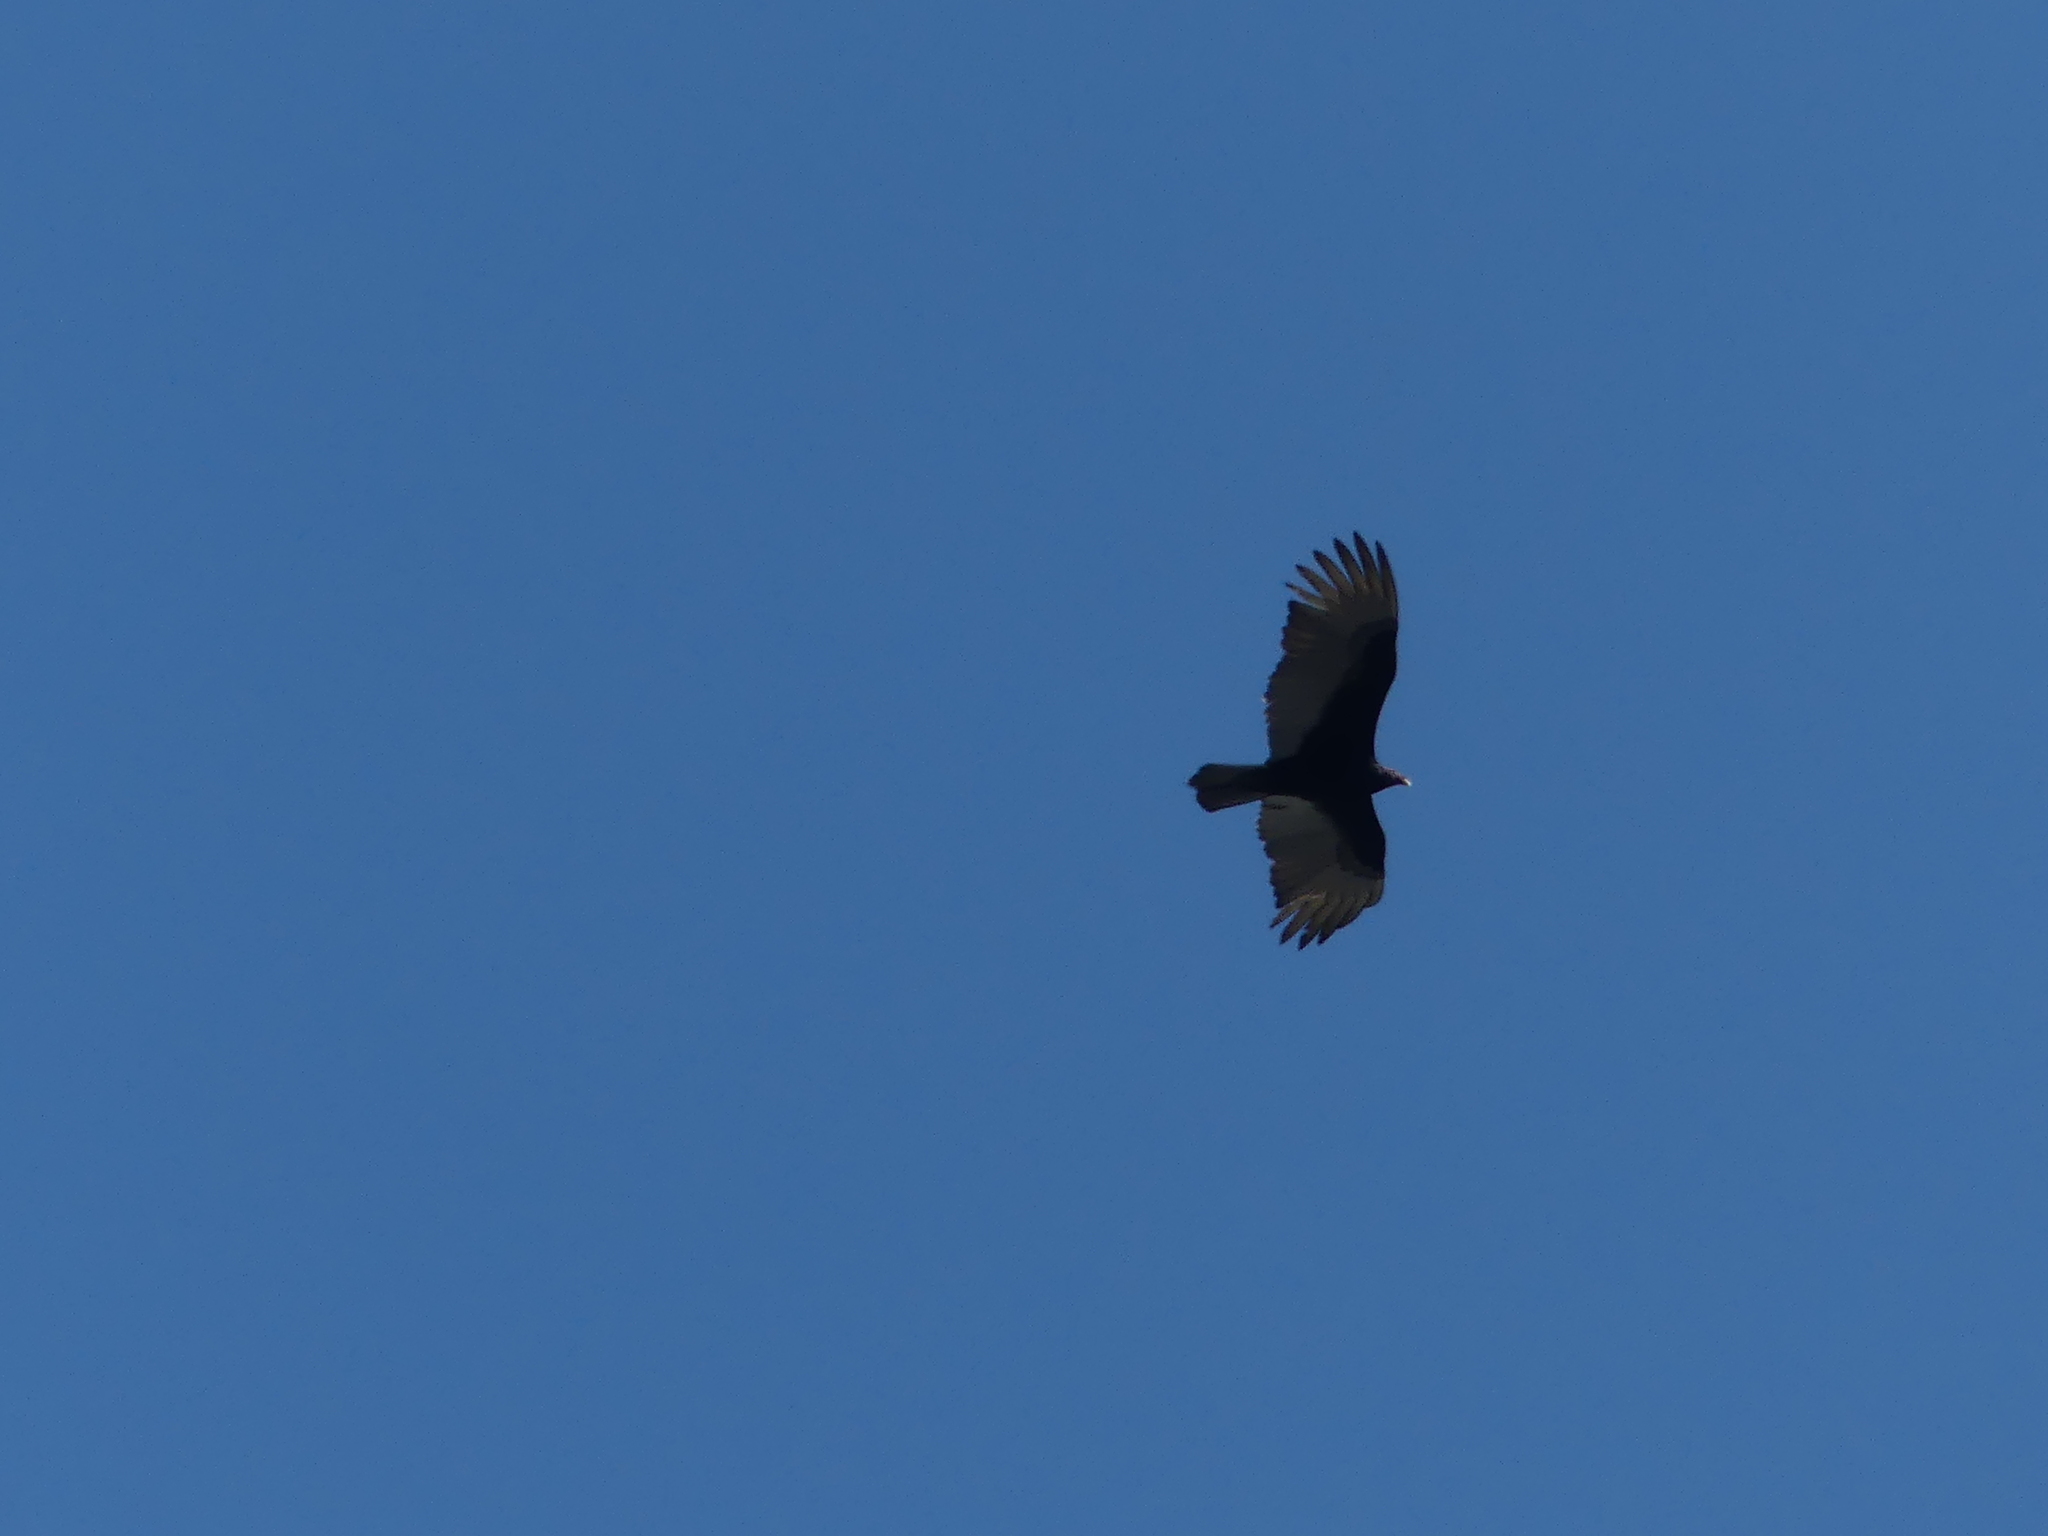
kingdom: Animalia
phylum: Chordata
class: Aves
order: Accipitriformes
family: Cathartidae
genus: Cathartes
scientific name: Cathartes aura
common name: Turkey vulture
